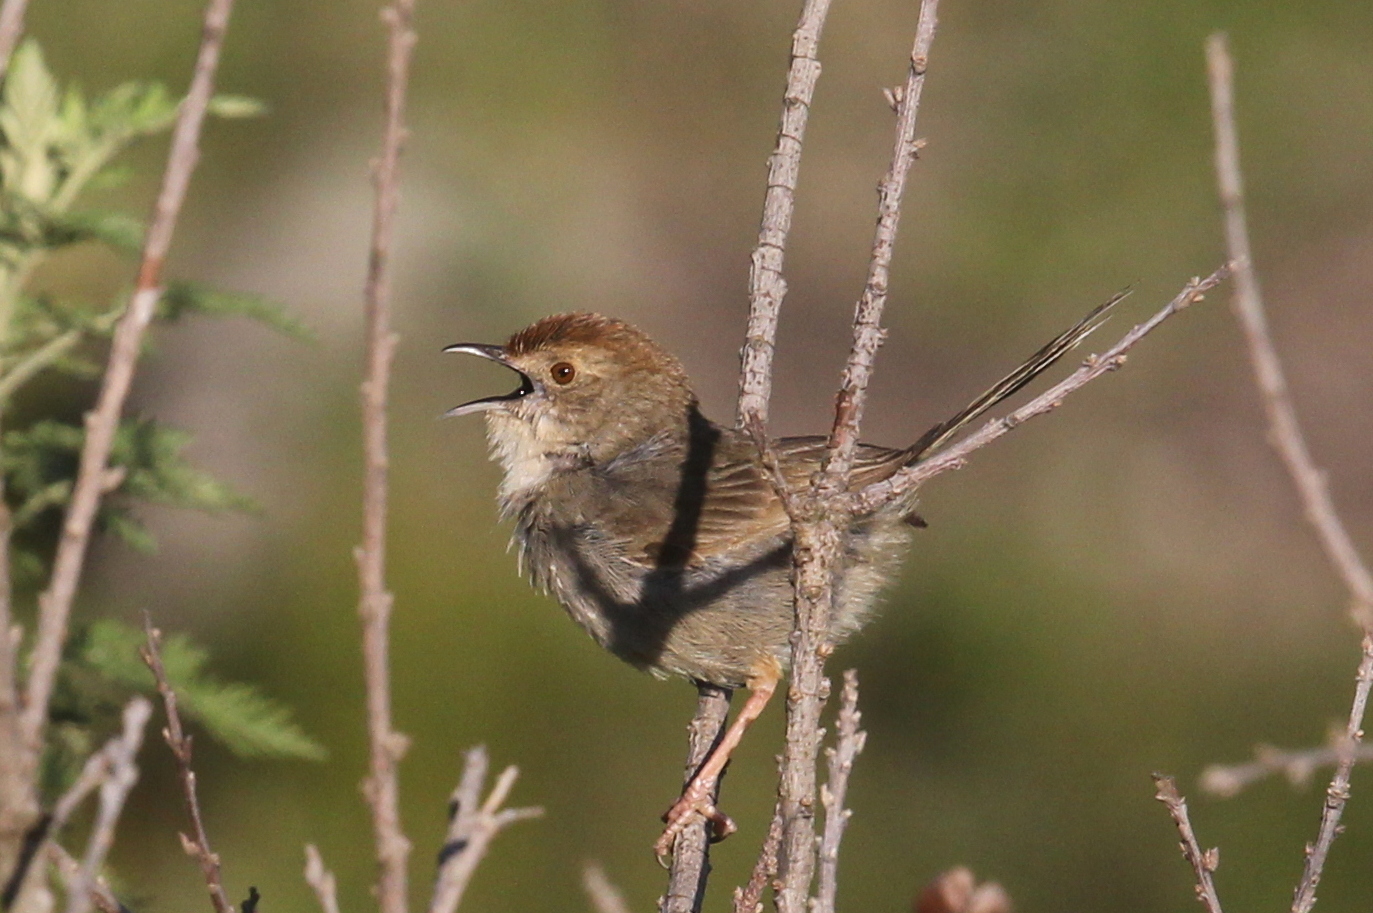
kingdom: Animalia
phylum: Chordata
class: Aves
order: Passeriformes
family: Cisticolidae
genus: Cisticola
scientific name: Cisticola aberrans
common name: Lazy cisticola
